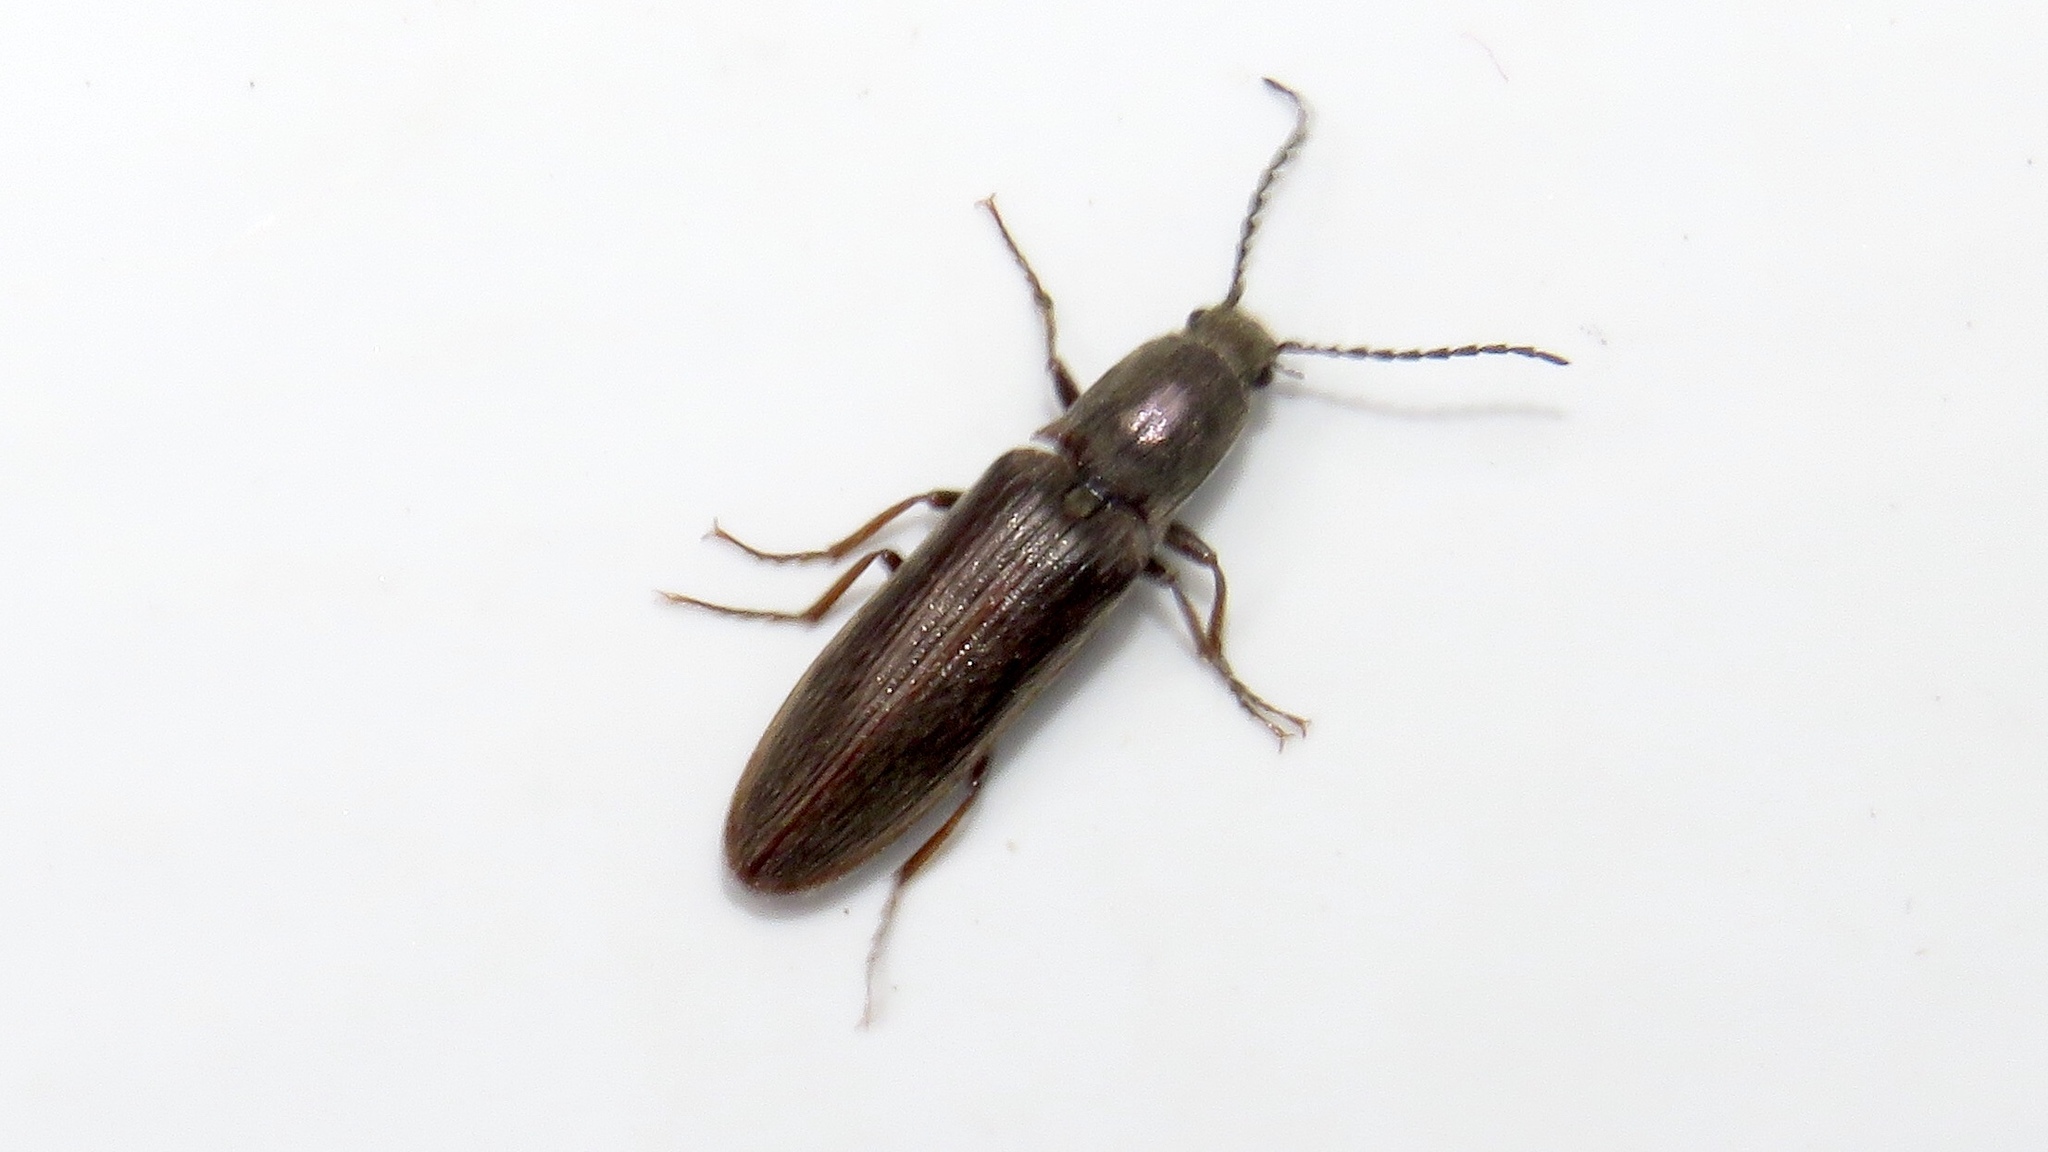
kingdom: Animalia
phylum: Arthropoda
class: Insecta
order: Coleoptera
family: Elateridae
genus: Sylvanelater
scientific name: Sylvanelater cylindriformis
